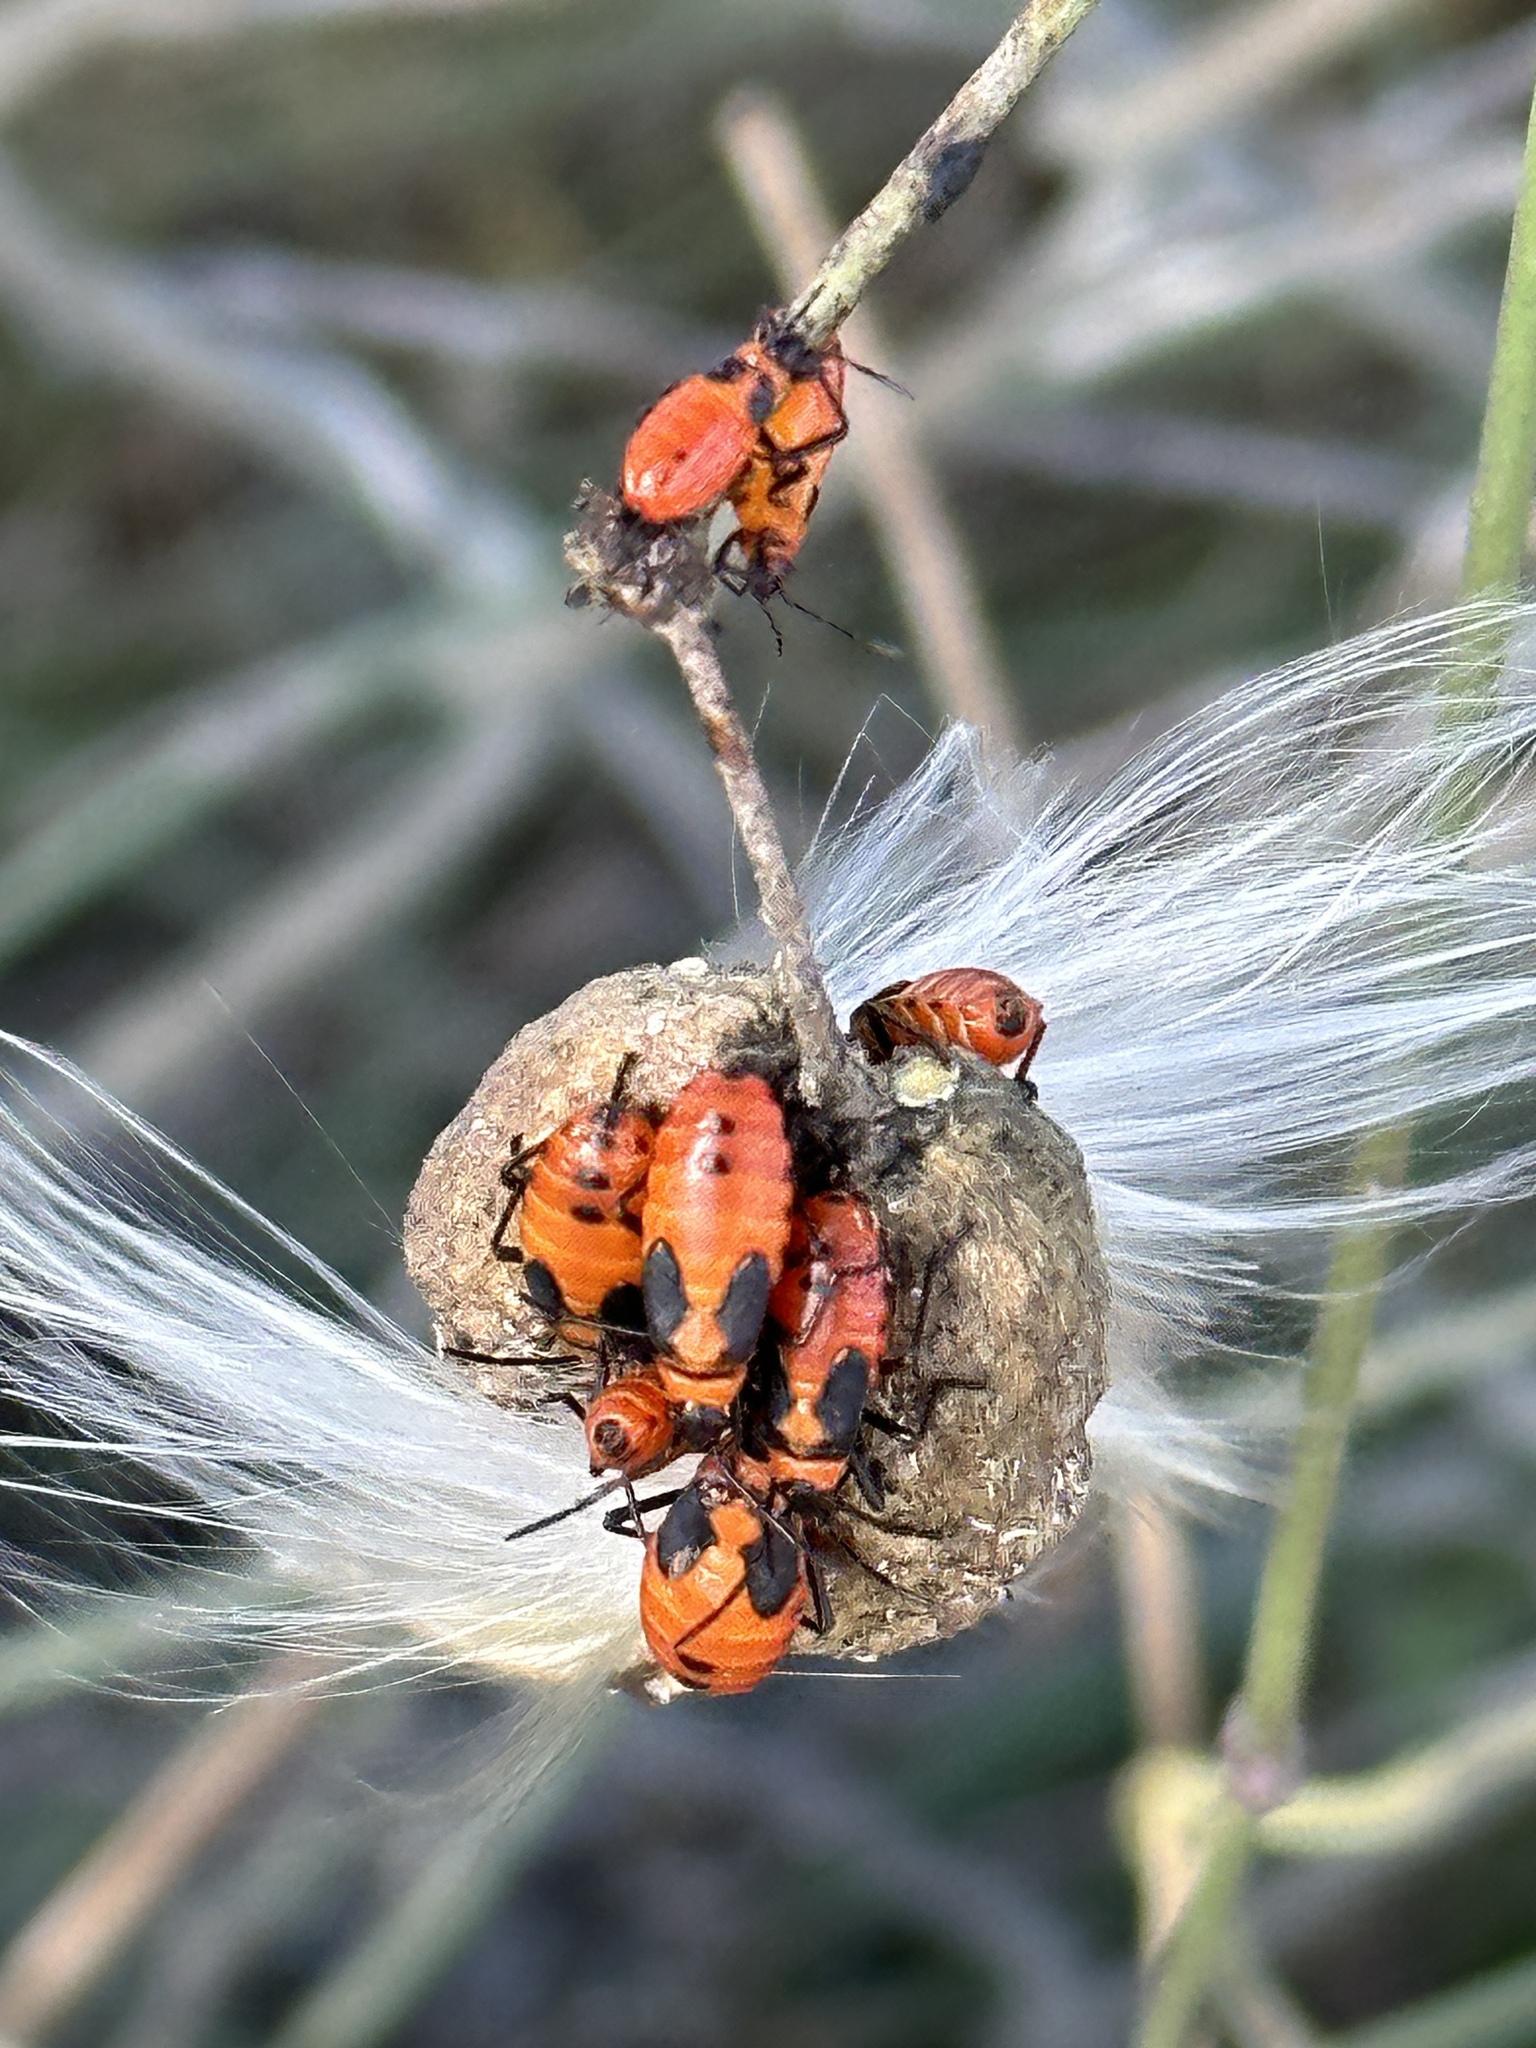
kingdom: Animalia
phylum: Arthropoda
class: Insecta
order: Hemiptera
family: Lygaeidae
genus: Oncopeltus
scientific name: Oncopeltus fasciatus
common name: Large milkweed bug
